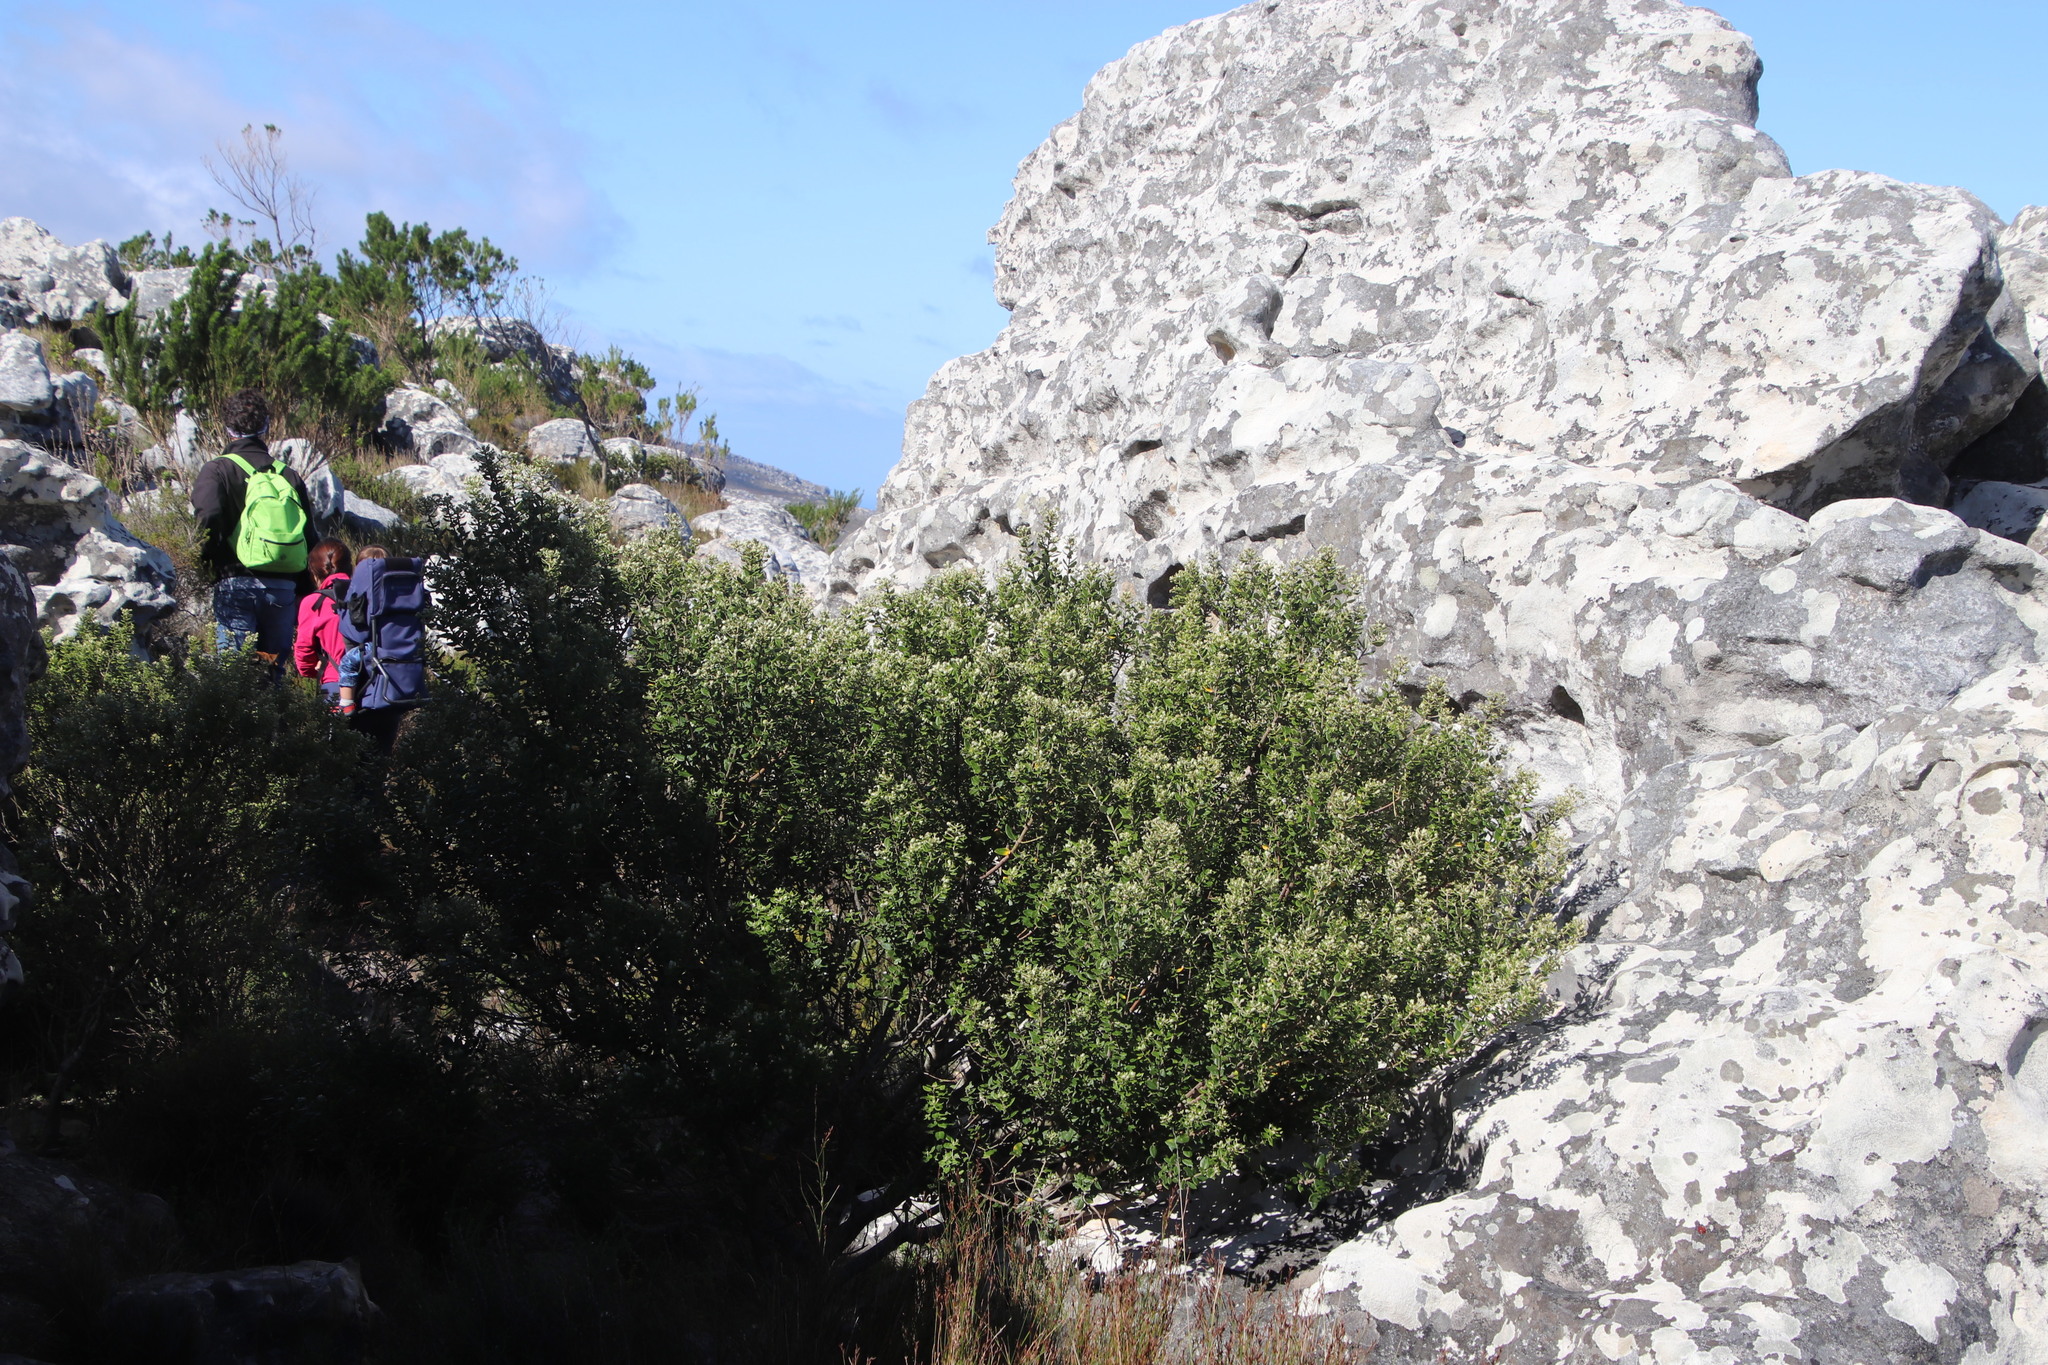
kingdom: Plantae
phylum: Tracheophyta
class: Magnoliopsida
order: Rosales
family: Rhamnaceae
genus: Phylica
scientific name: Phylica buxifolia
